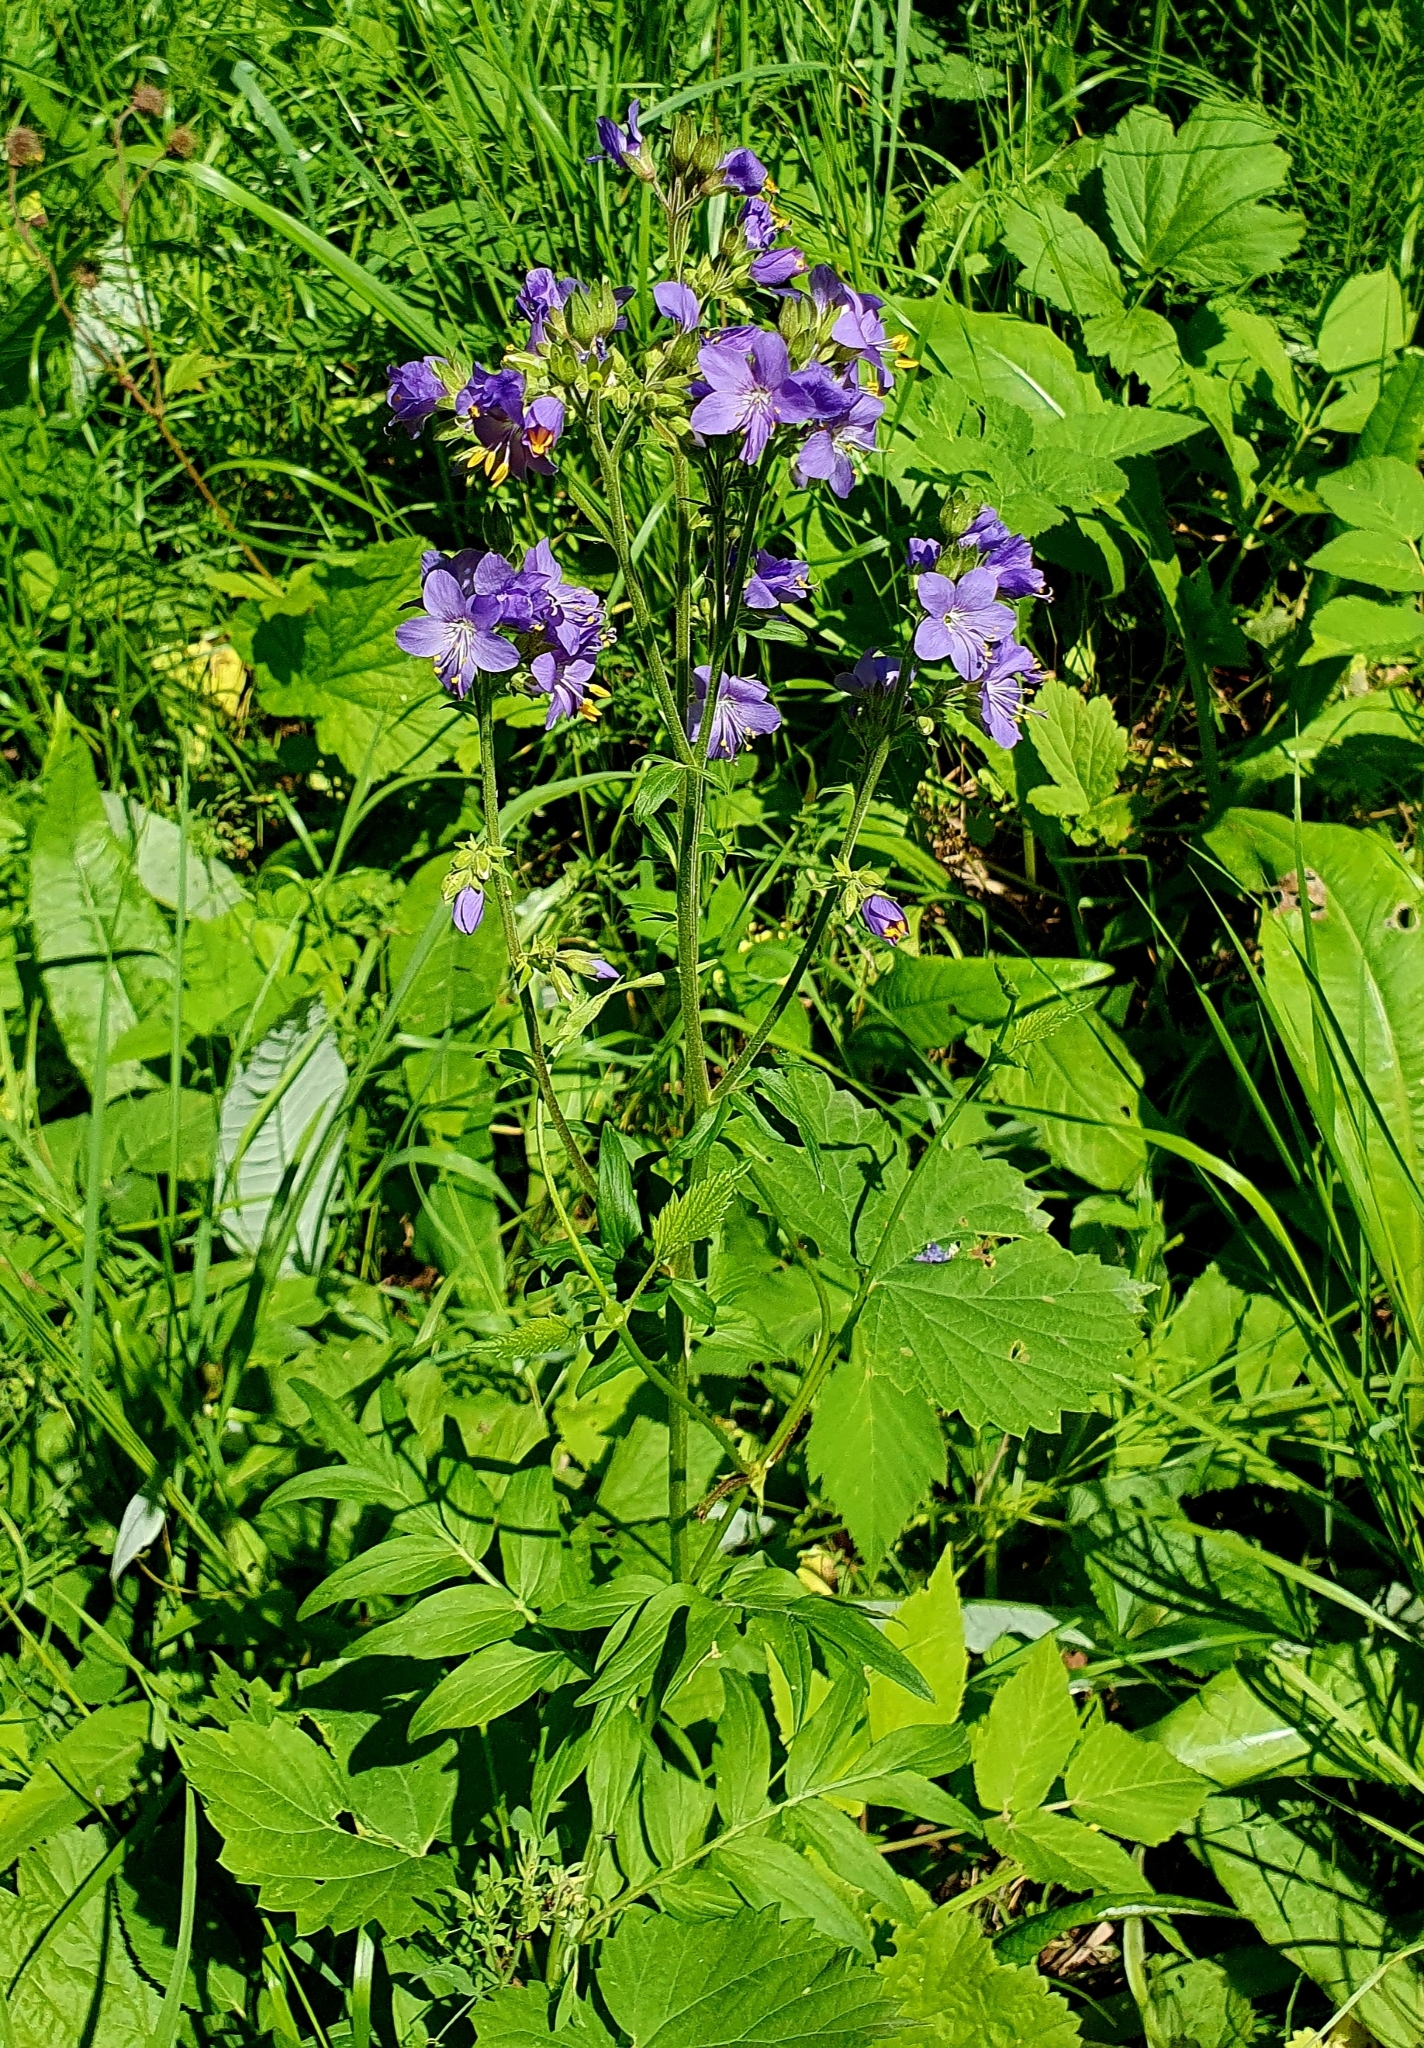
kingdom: Plantae
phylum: Tracheophyta
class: Magnoliopsida
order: Ericales
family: Polemoniaceae
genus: Polemonium
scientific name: Polemonium caeruleum
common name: Jacob's-ladder
